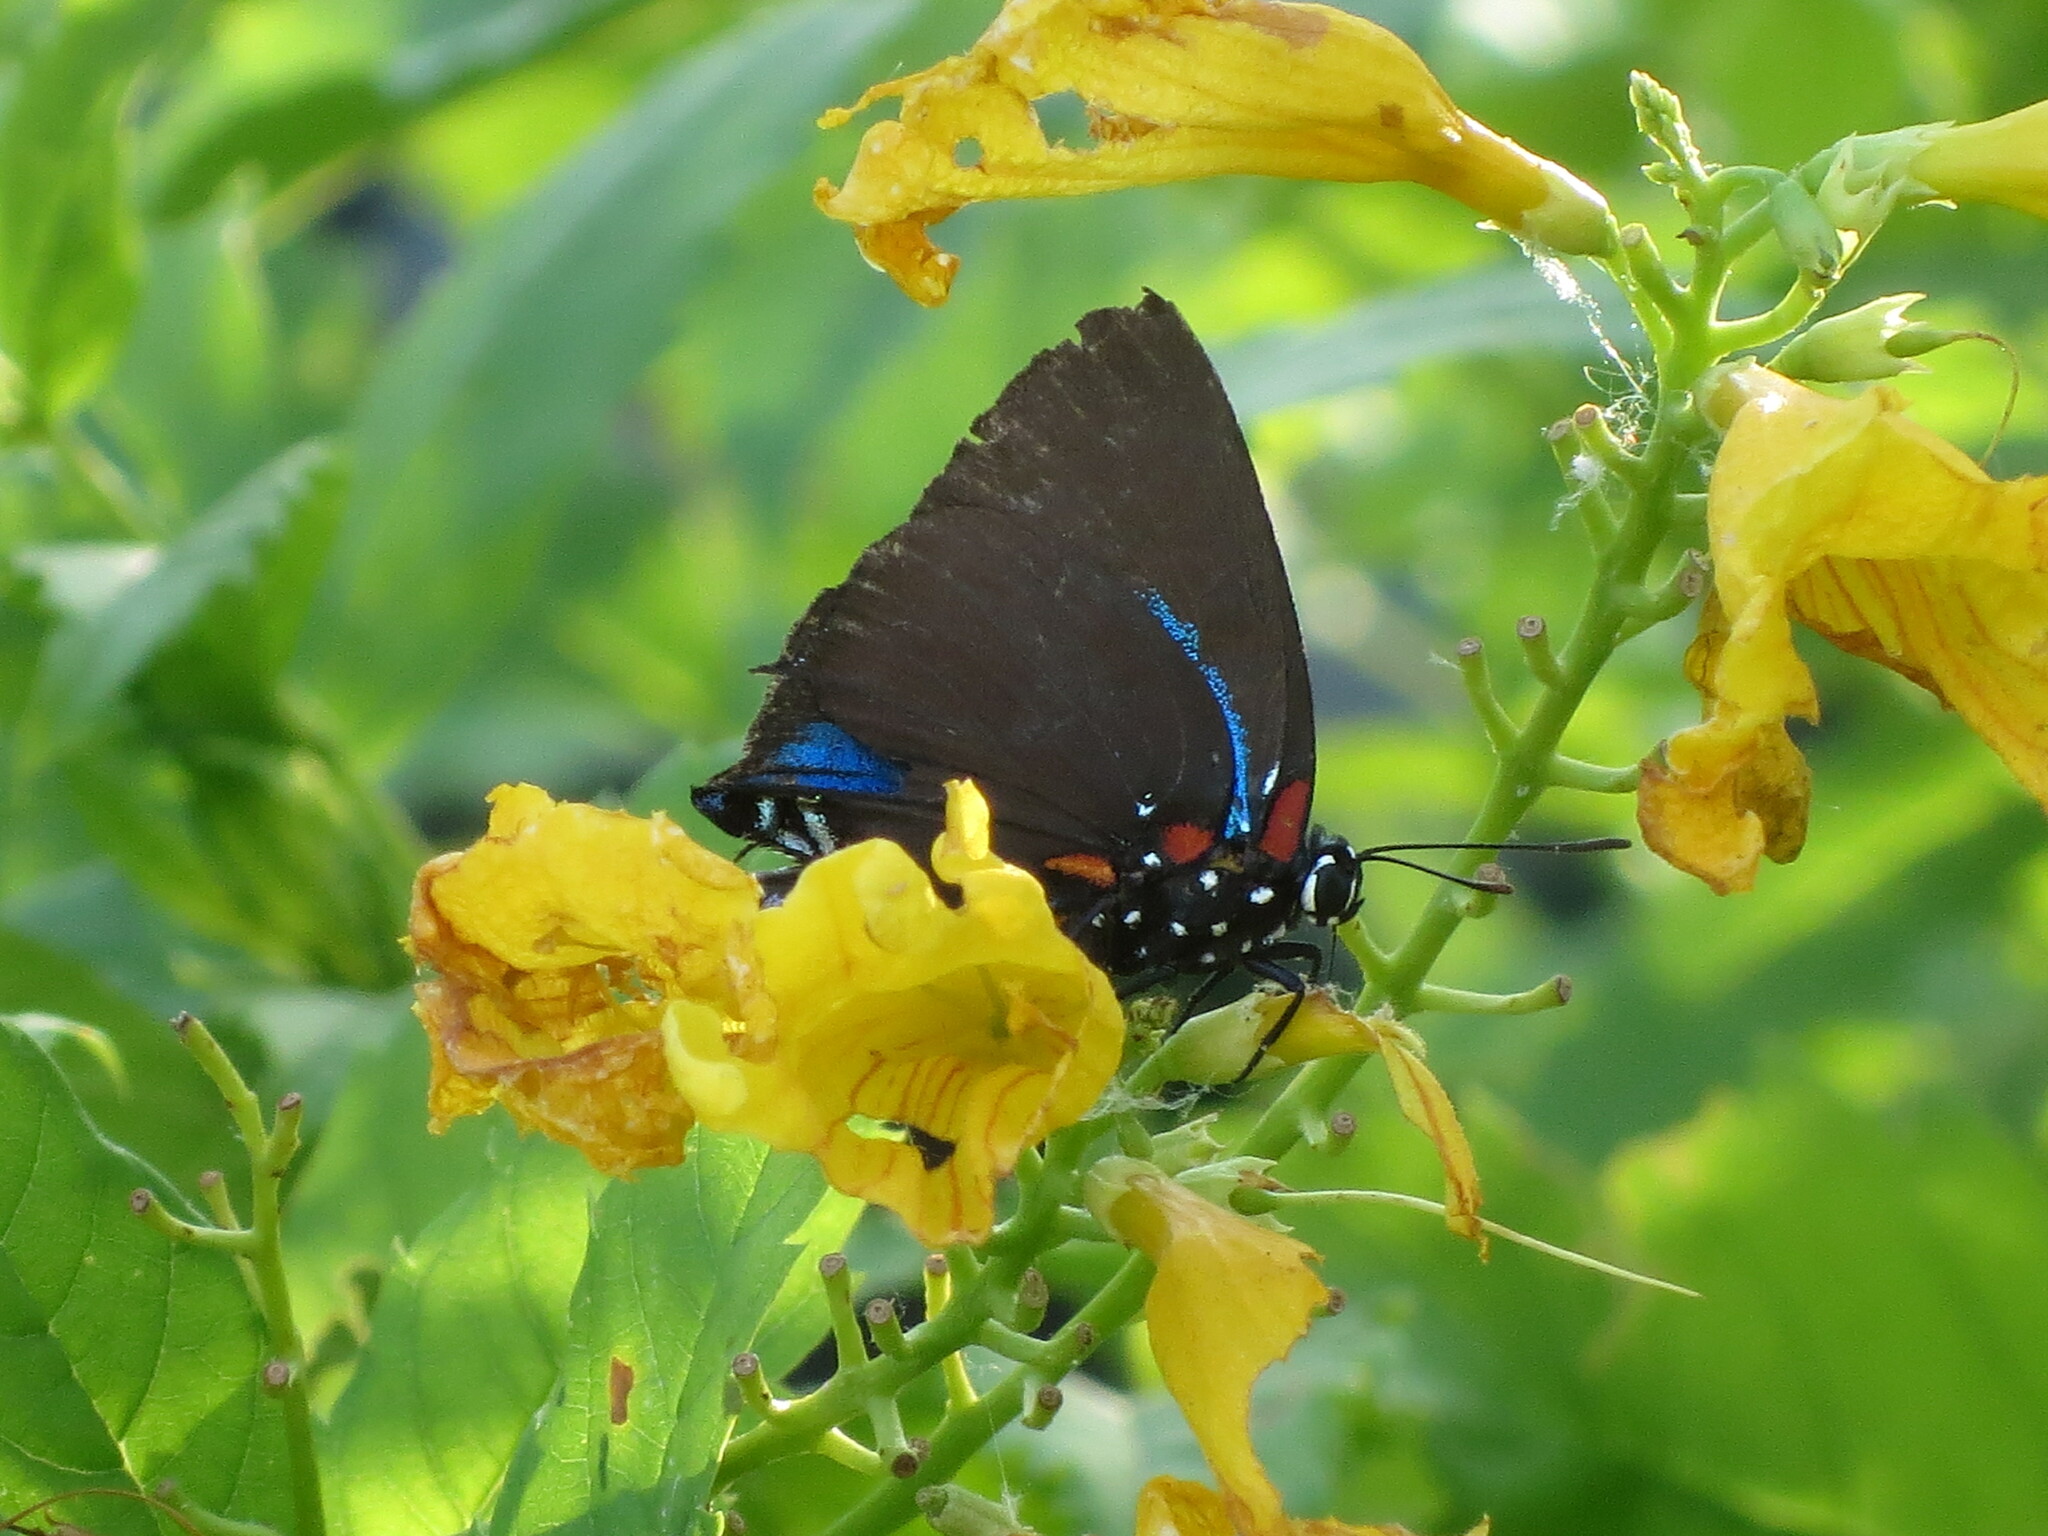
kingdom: Animalia
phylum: Arthropoda
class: Insecta
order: Lepidoptera
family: Lycaenidae
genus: Atlides
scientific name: Atlides halesus
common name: Great purple hairstreak
